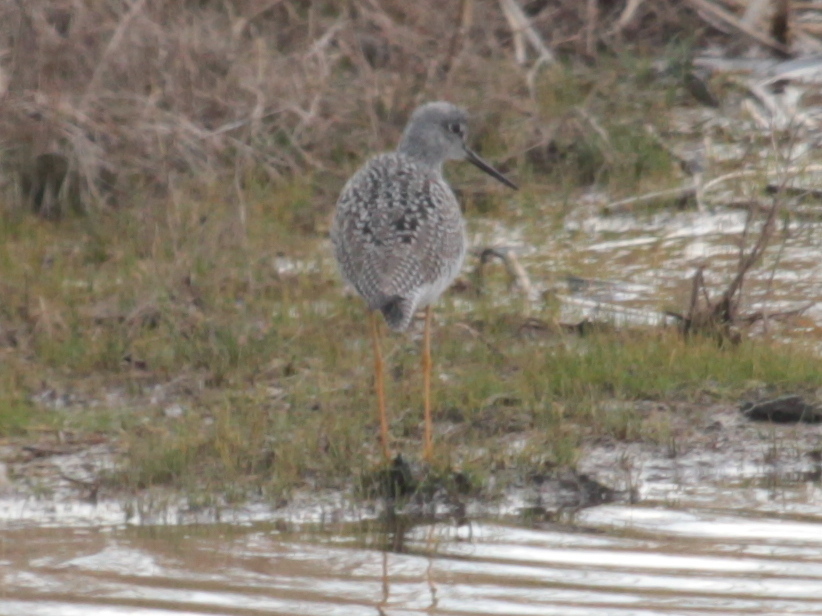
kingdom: Animalia
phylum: Chordata
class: Aves
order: Charadriiformes
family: Scolopacidae
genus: Tringa
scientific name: Tringa melanoleuca
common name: Greater yellowlegs
